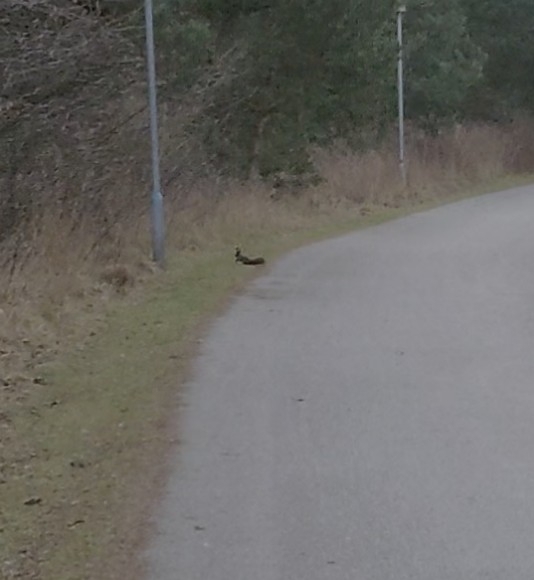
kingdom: Animalia
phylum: Chordata
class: Mammalia
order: Rodentia
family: Sciuridae
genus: Sciurus
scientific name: Sciurus vulgaris
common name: Eurasian red squirrel
